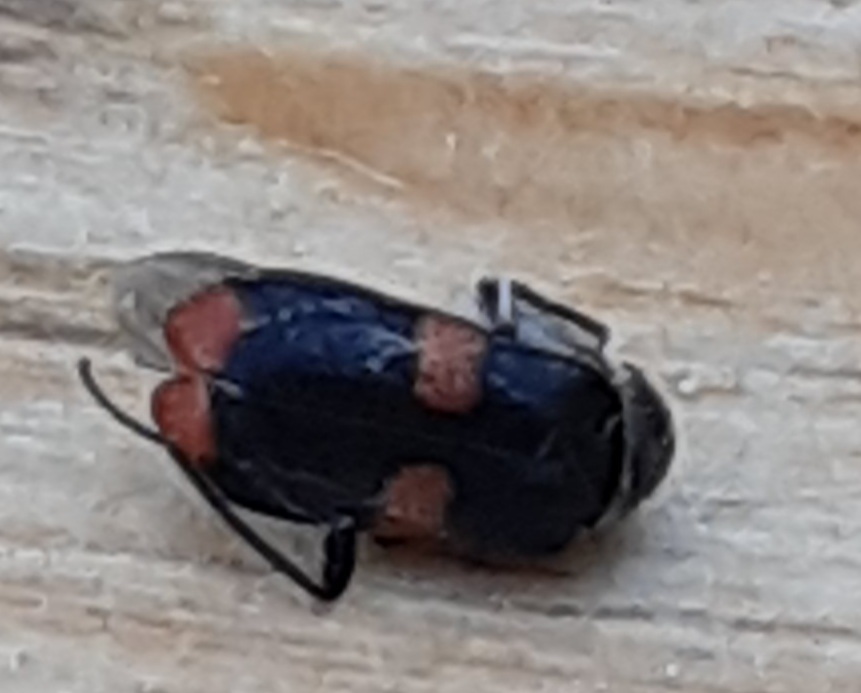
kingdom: Animalia
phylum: Arthropoda
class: Insecta
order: Coleoptera
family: Melyridae
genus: Anthocomus
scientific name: Anthocomus fasciatus
